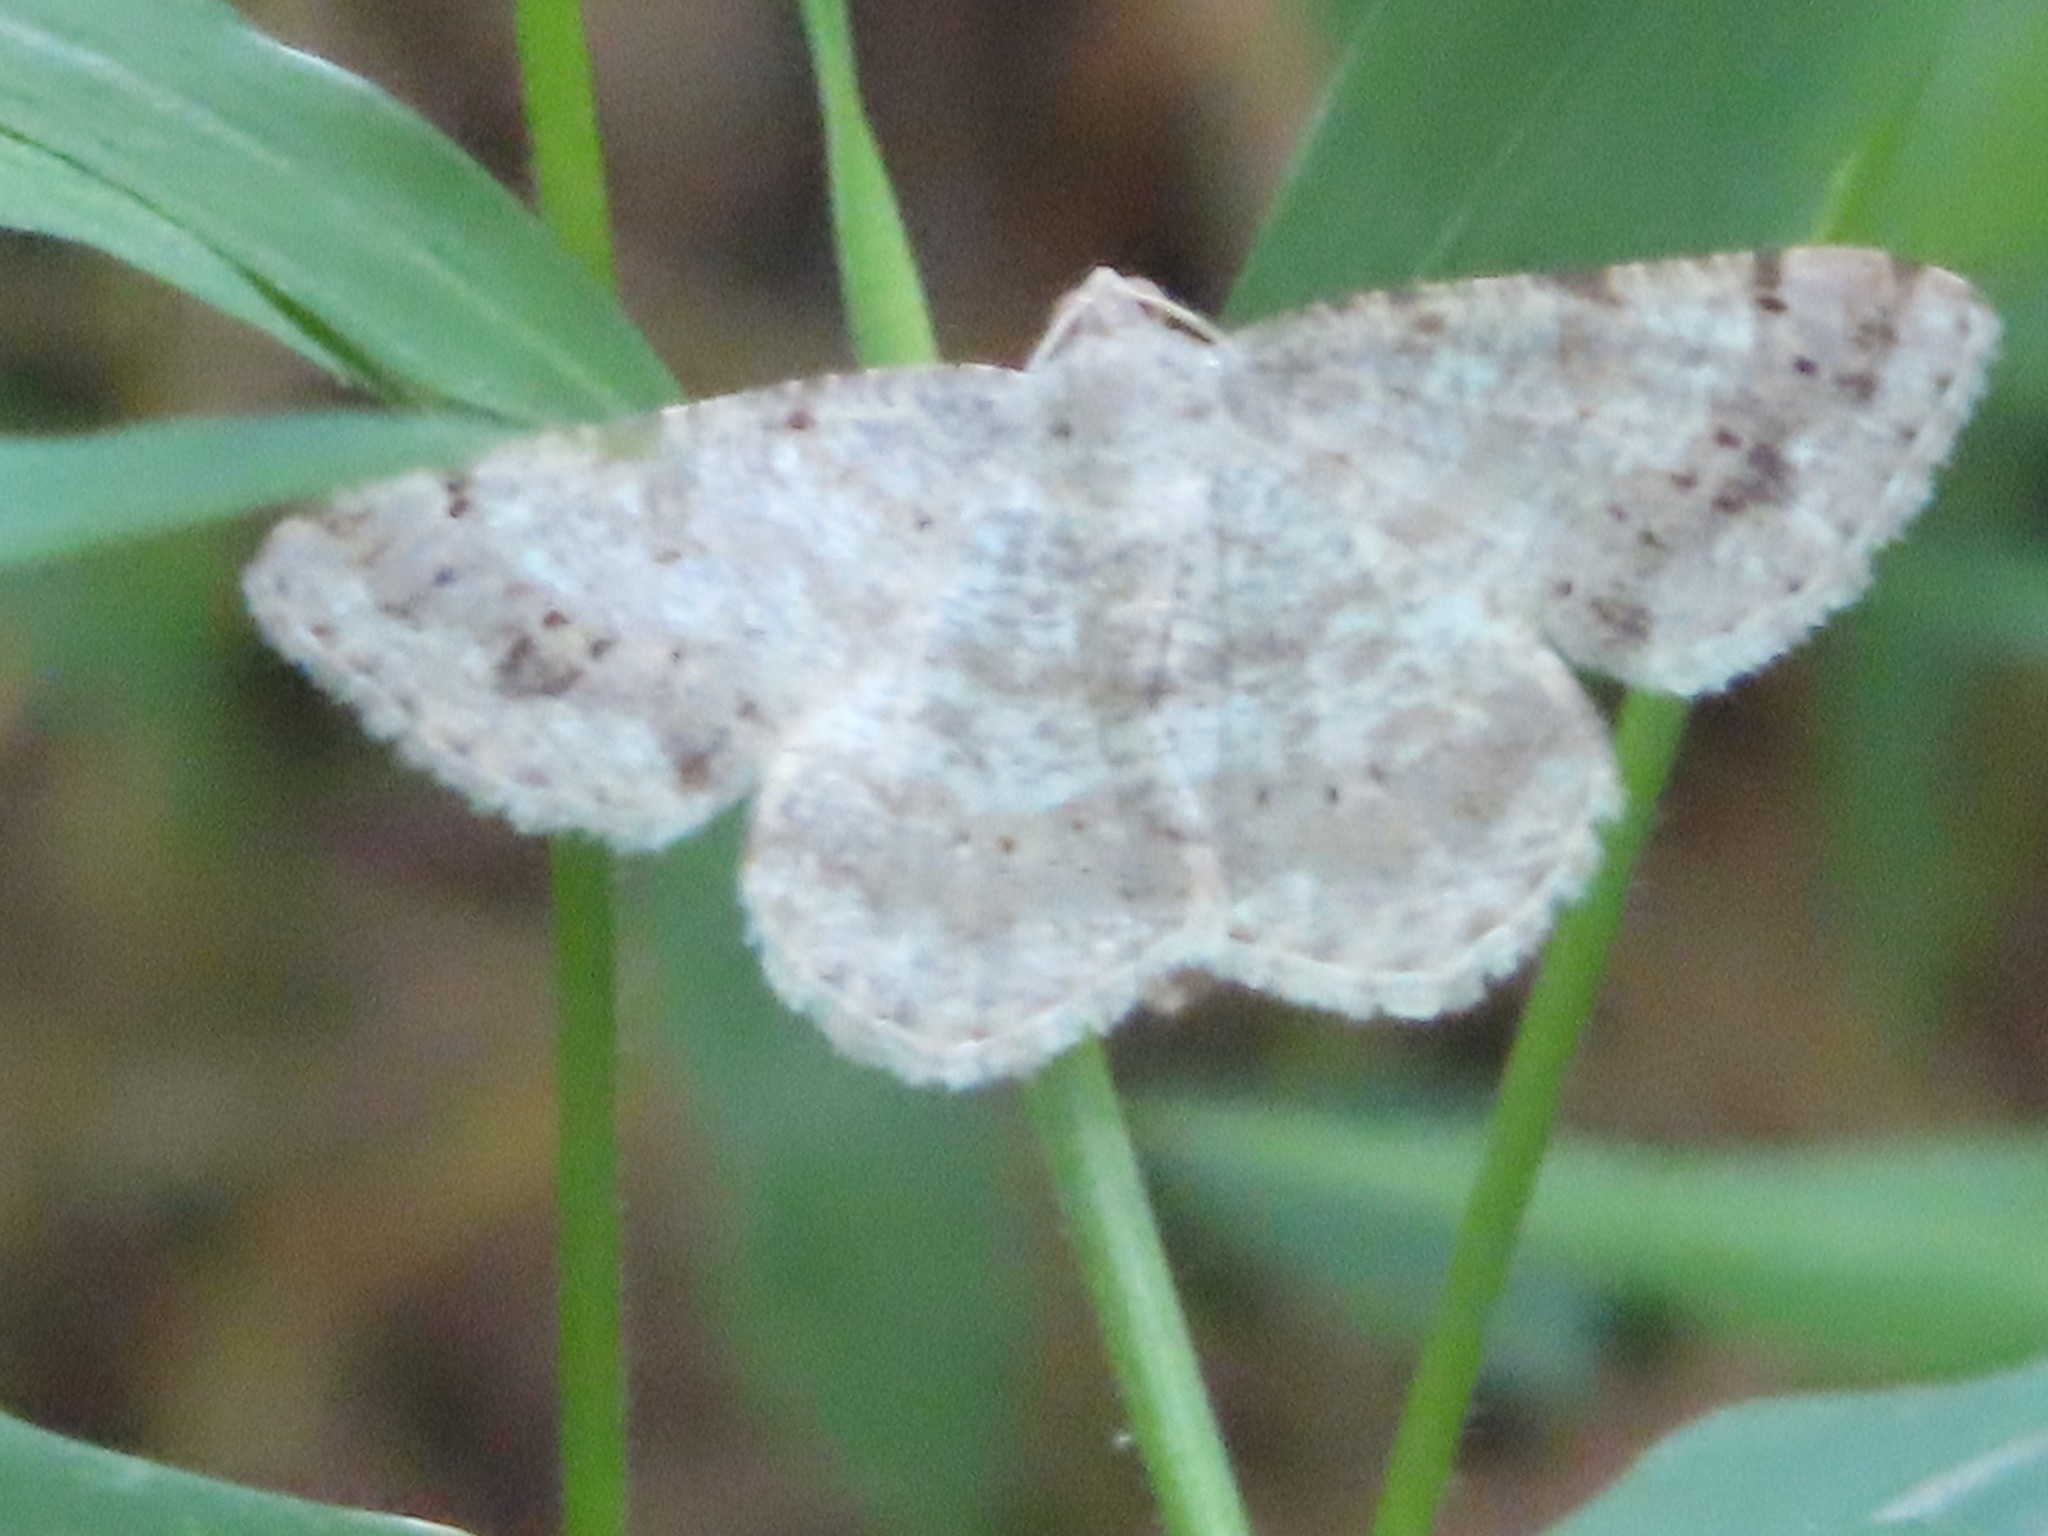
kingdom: Animalia
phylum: Arthropoda
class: Insecta
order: Lepidoptera
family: Geometridae
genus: Digrammia
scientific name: Digrammia ocellinata
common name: Faint-spotted angle
